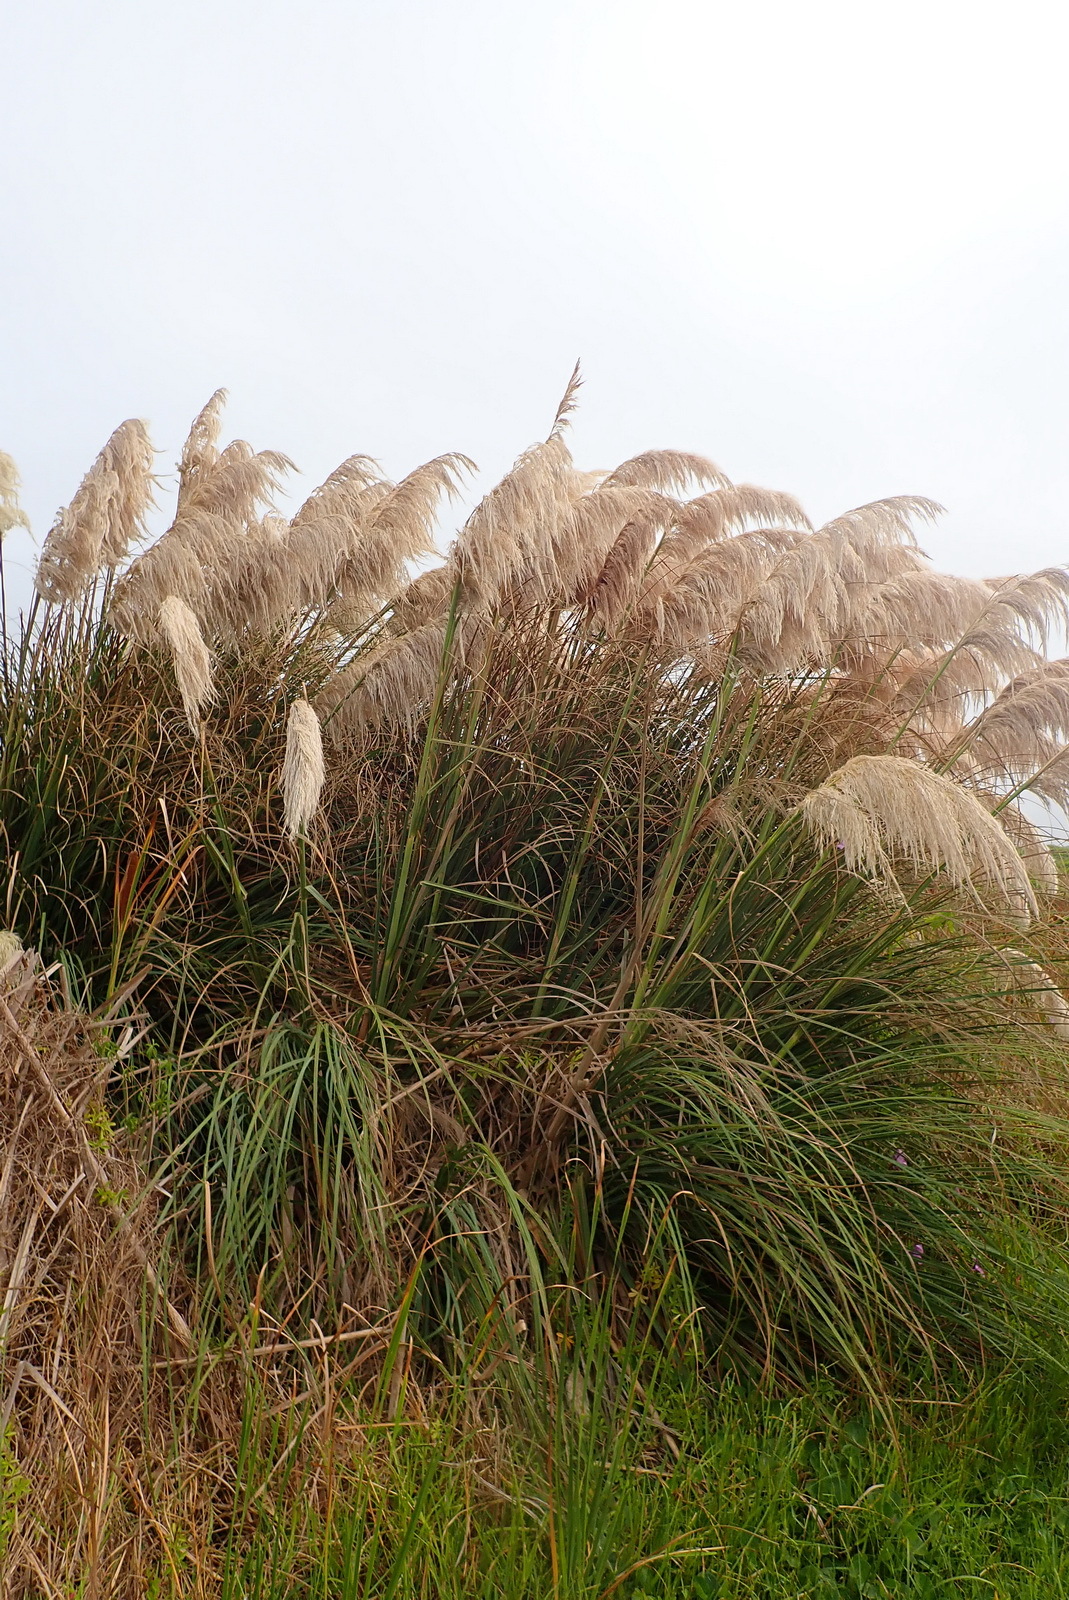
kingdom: Plantae
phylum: Tracheophyta
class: Liliopsida
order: Poales
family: Poaceae
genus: Cortaderia
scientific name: Cortaderia selloana
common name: Uruguayan pampas grass
